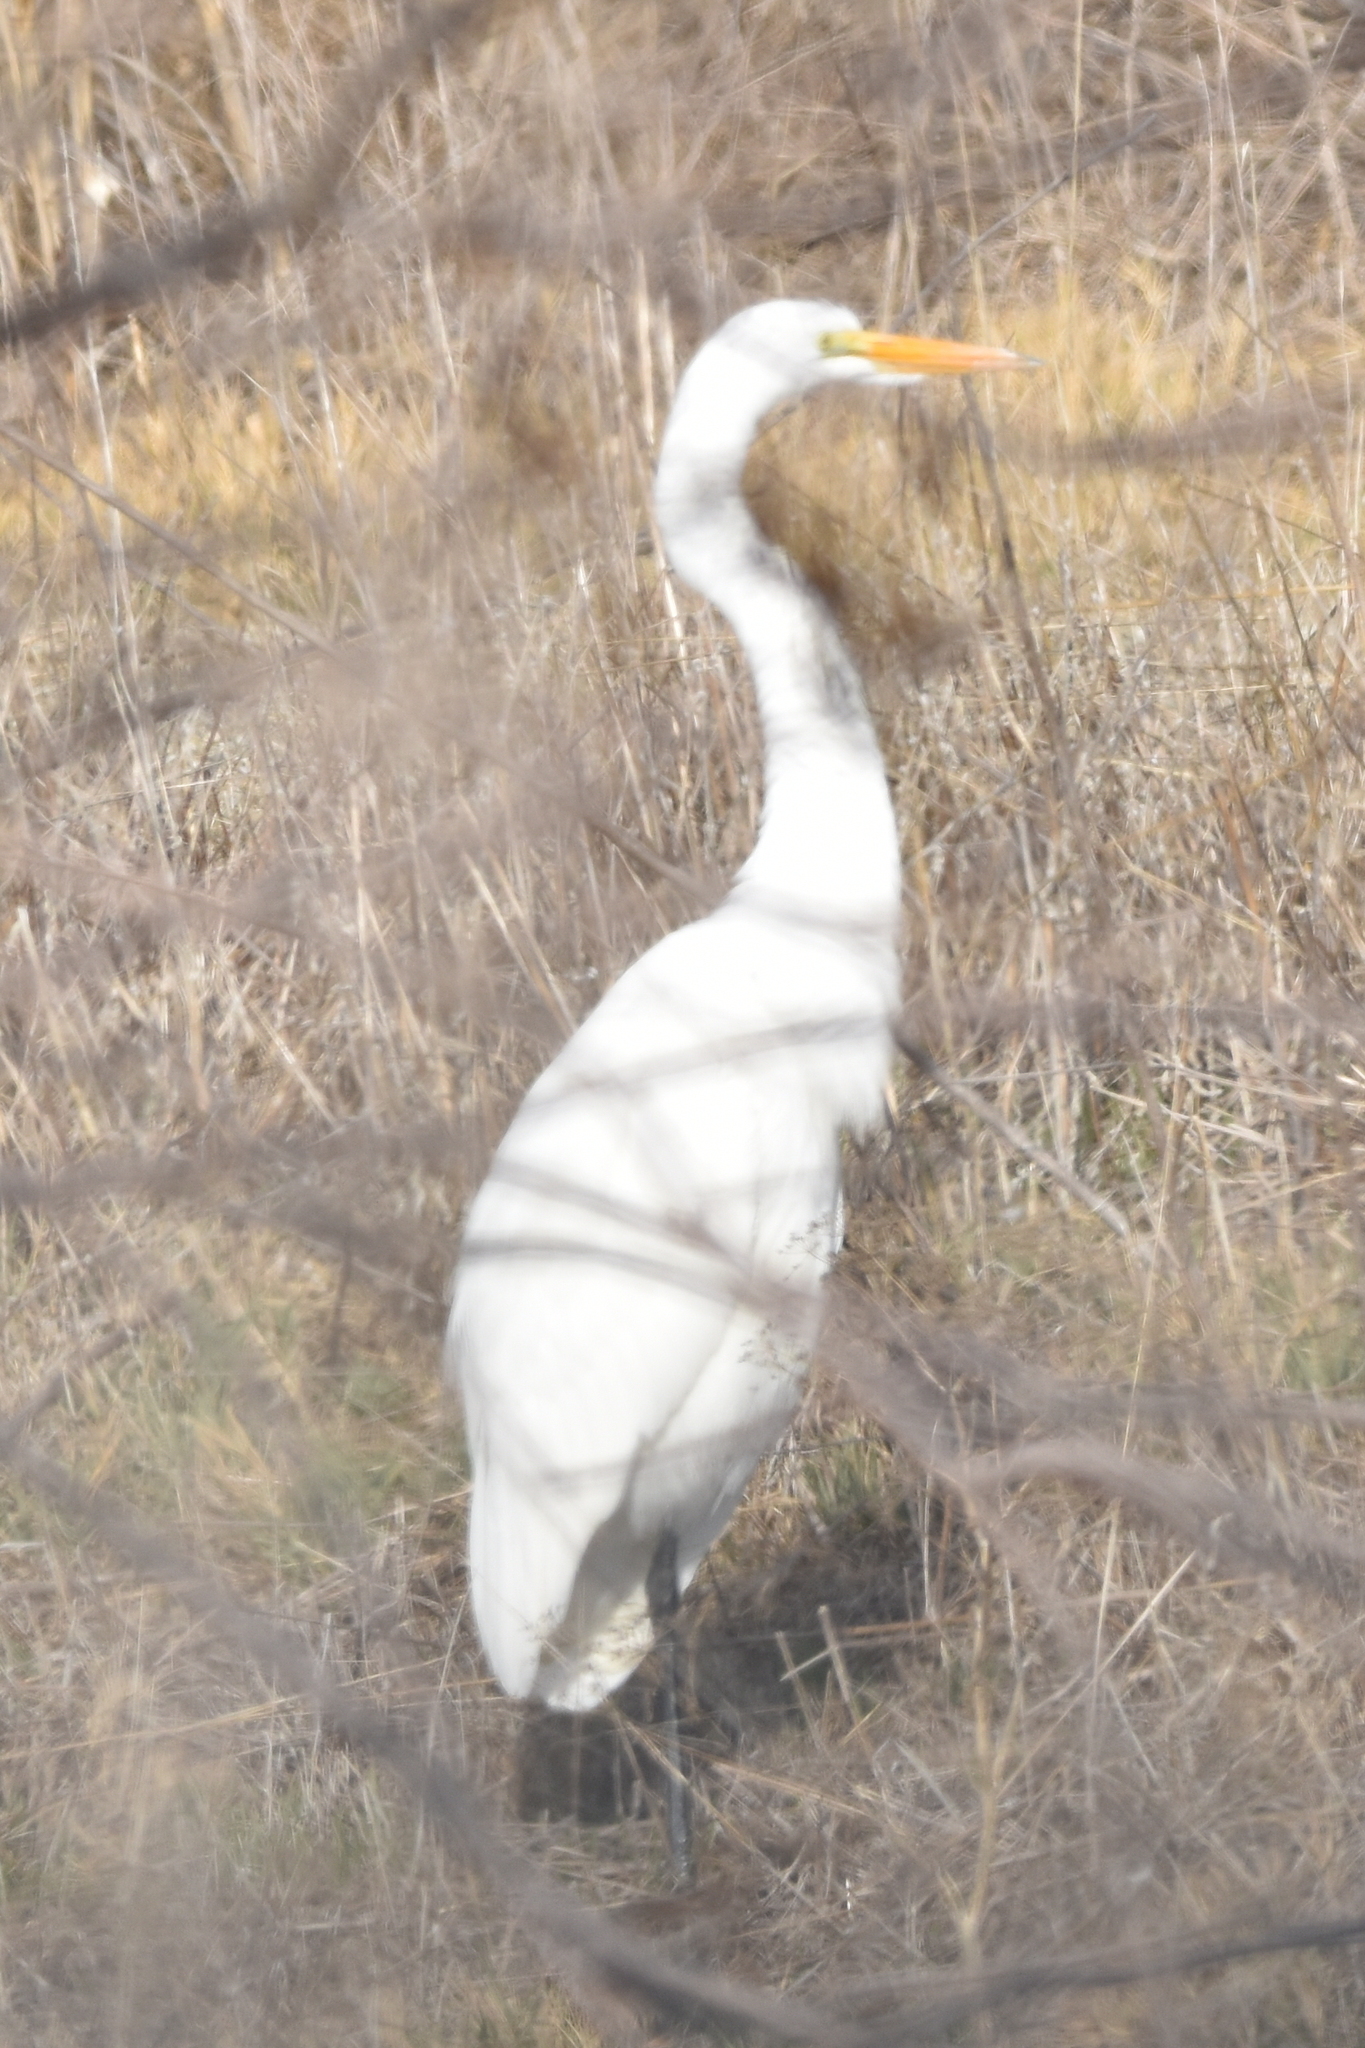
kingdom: Animalia
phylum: Chordata
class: Aves
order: Pelecaniformes
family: Ardeidae
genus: Ardea
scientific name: Ardea alba
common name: Great egret
